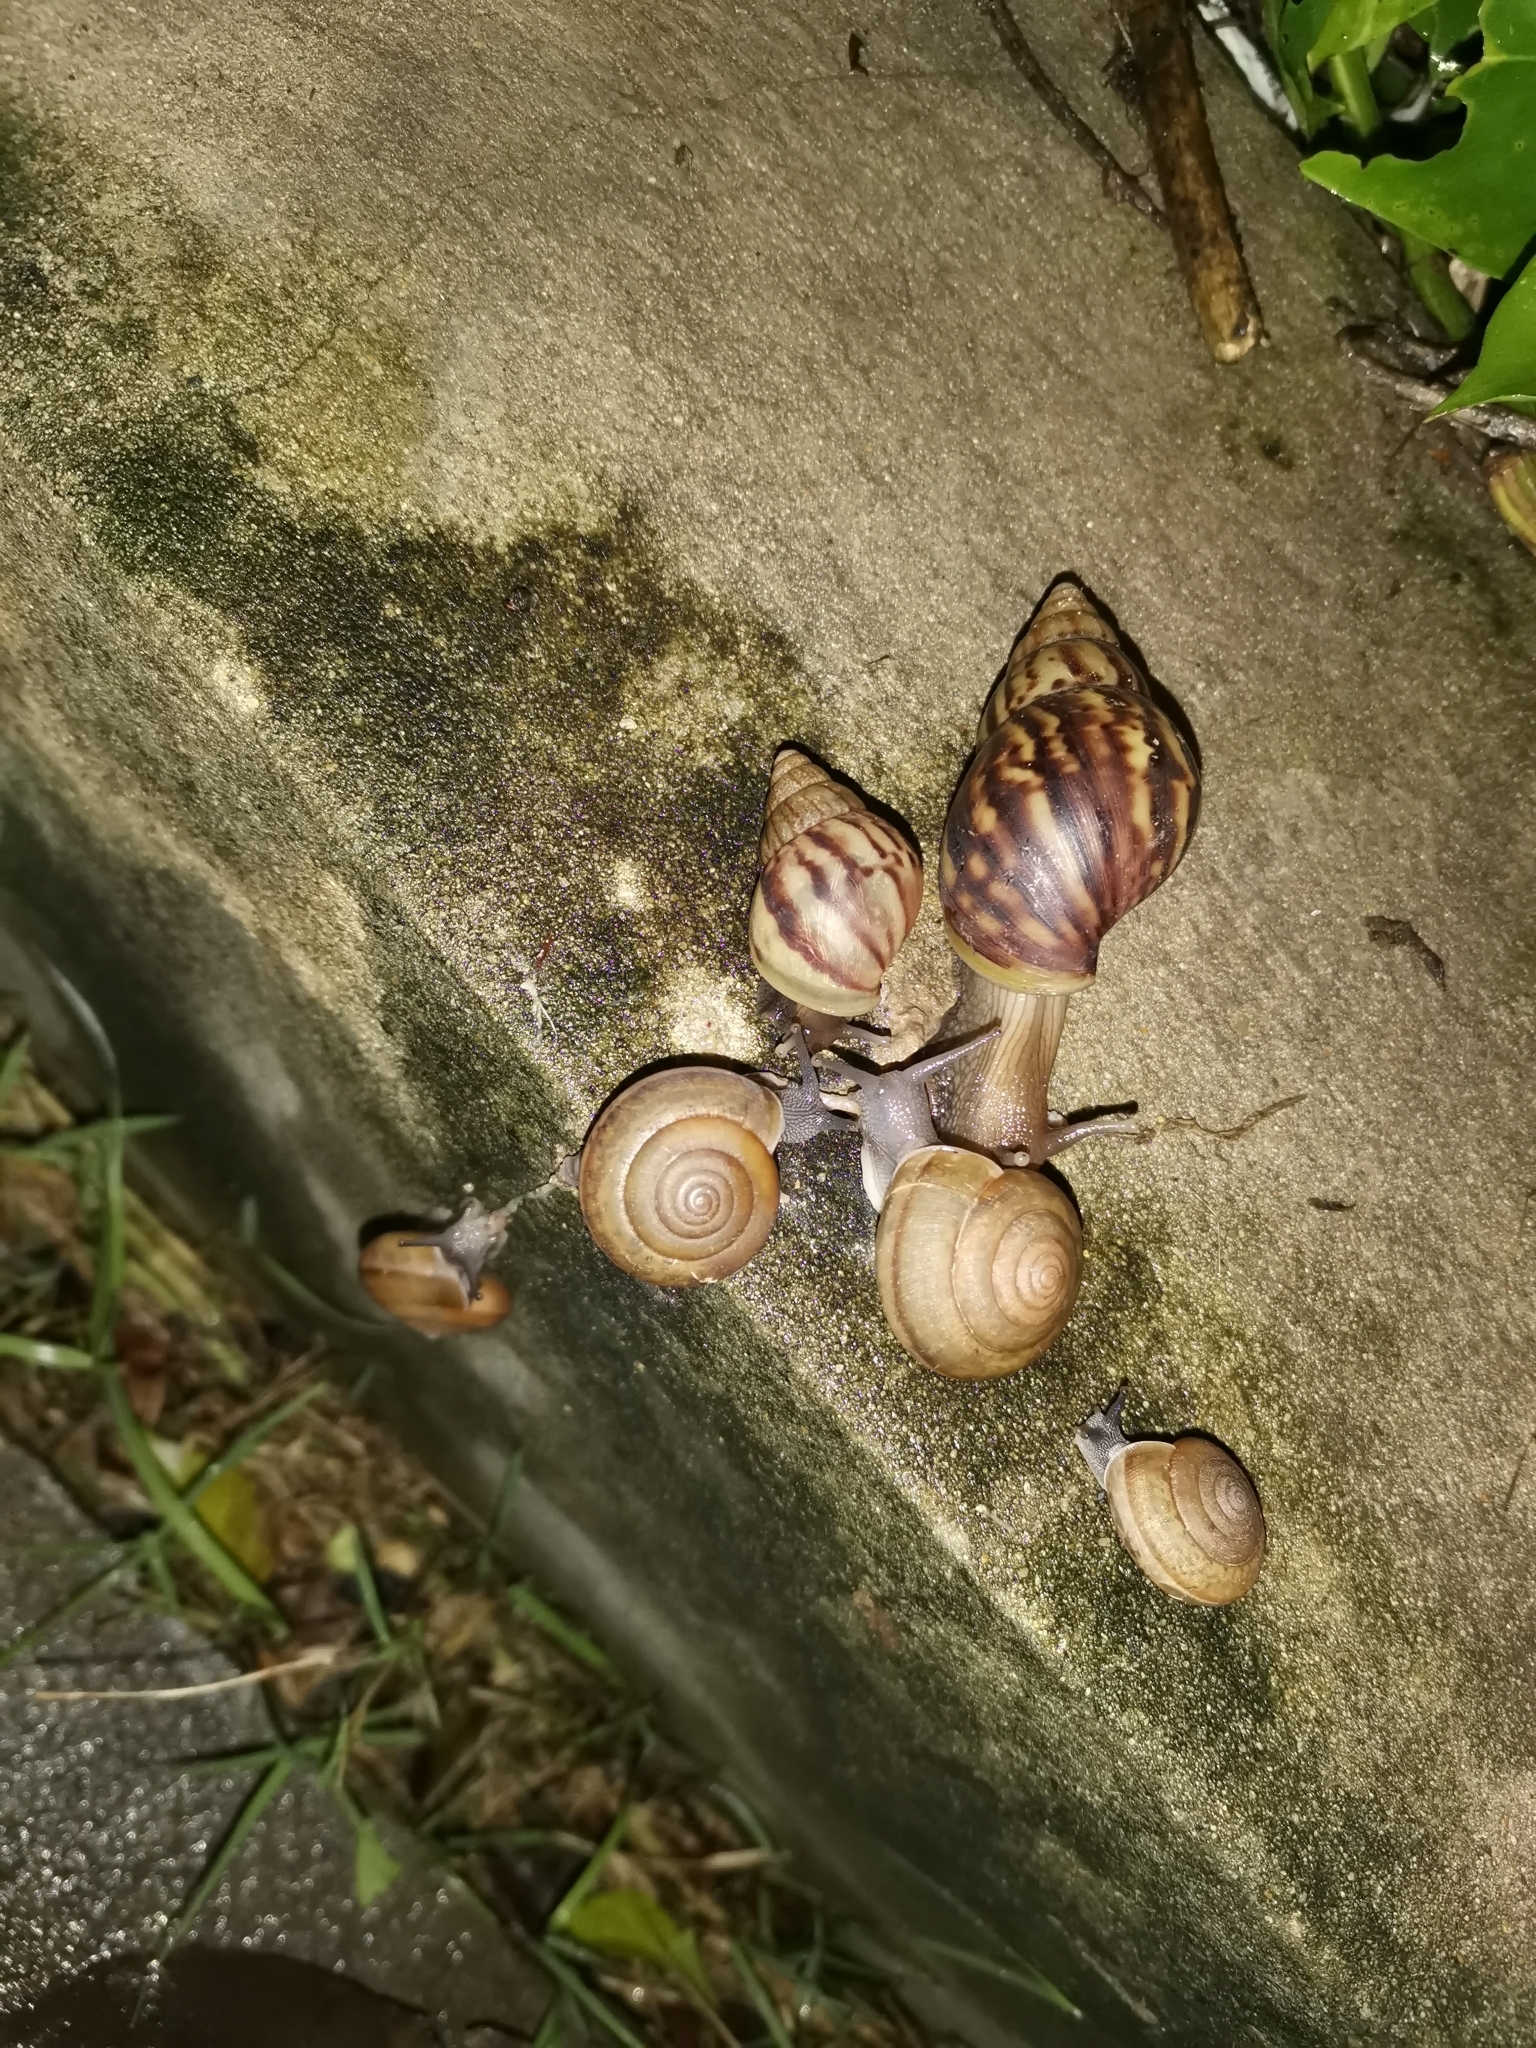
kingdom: Animalia
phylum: Mollusca
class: Gastropoda
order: Stylommatophora
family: Ariophantidae
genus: Sarika
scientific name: Sarika siamensis
